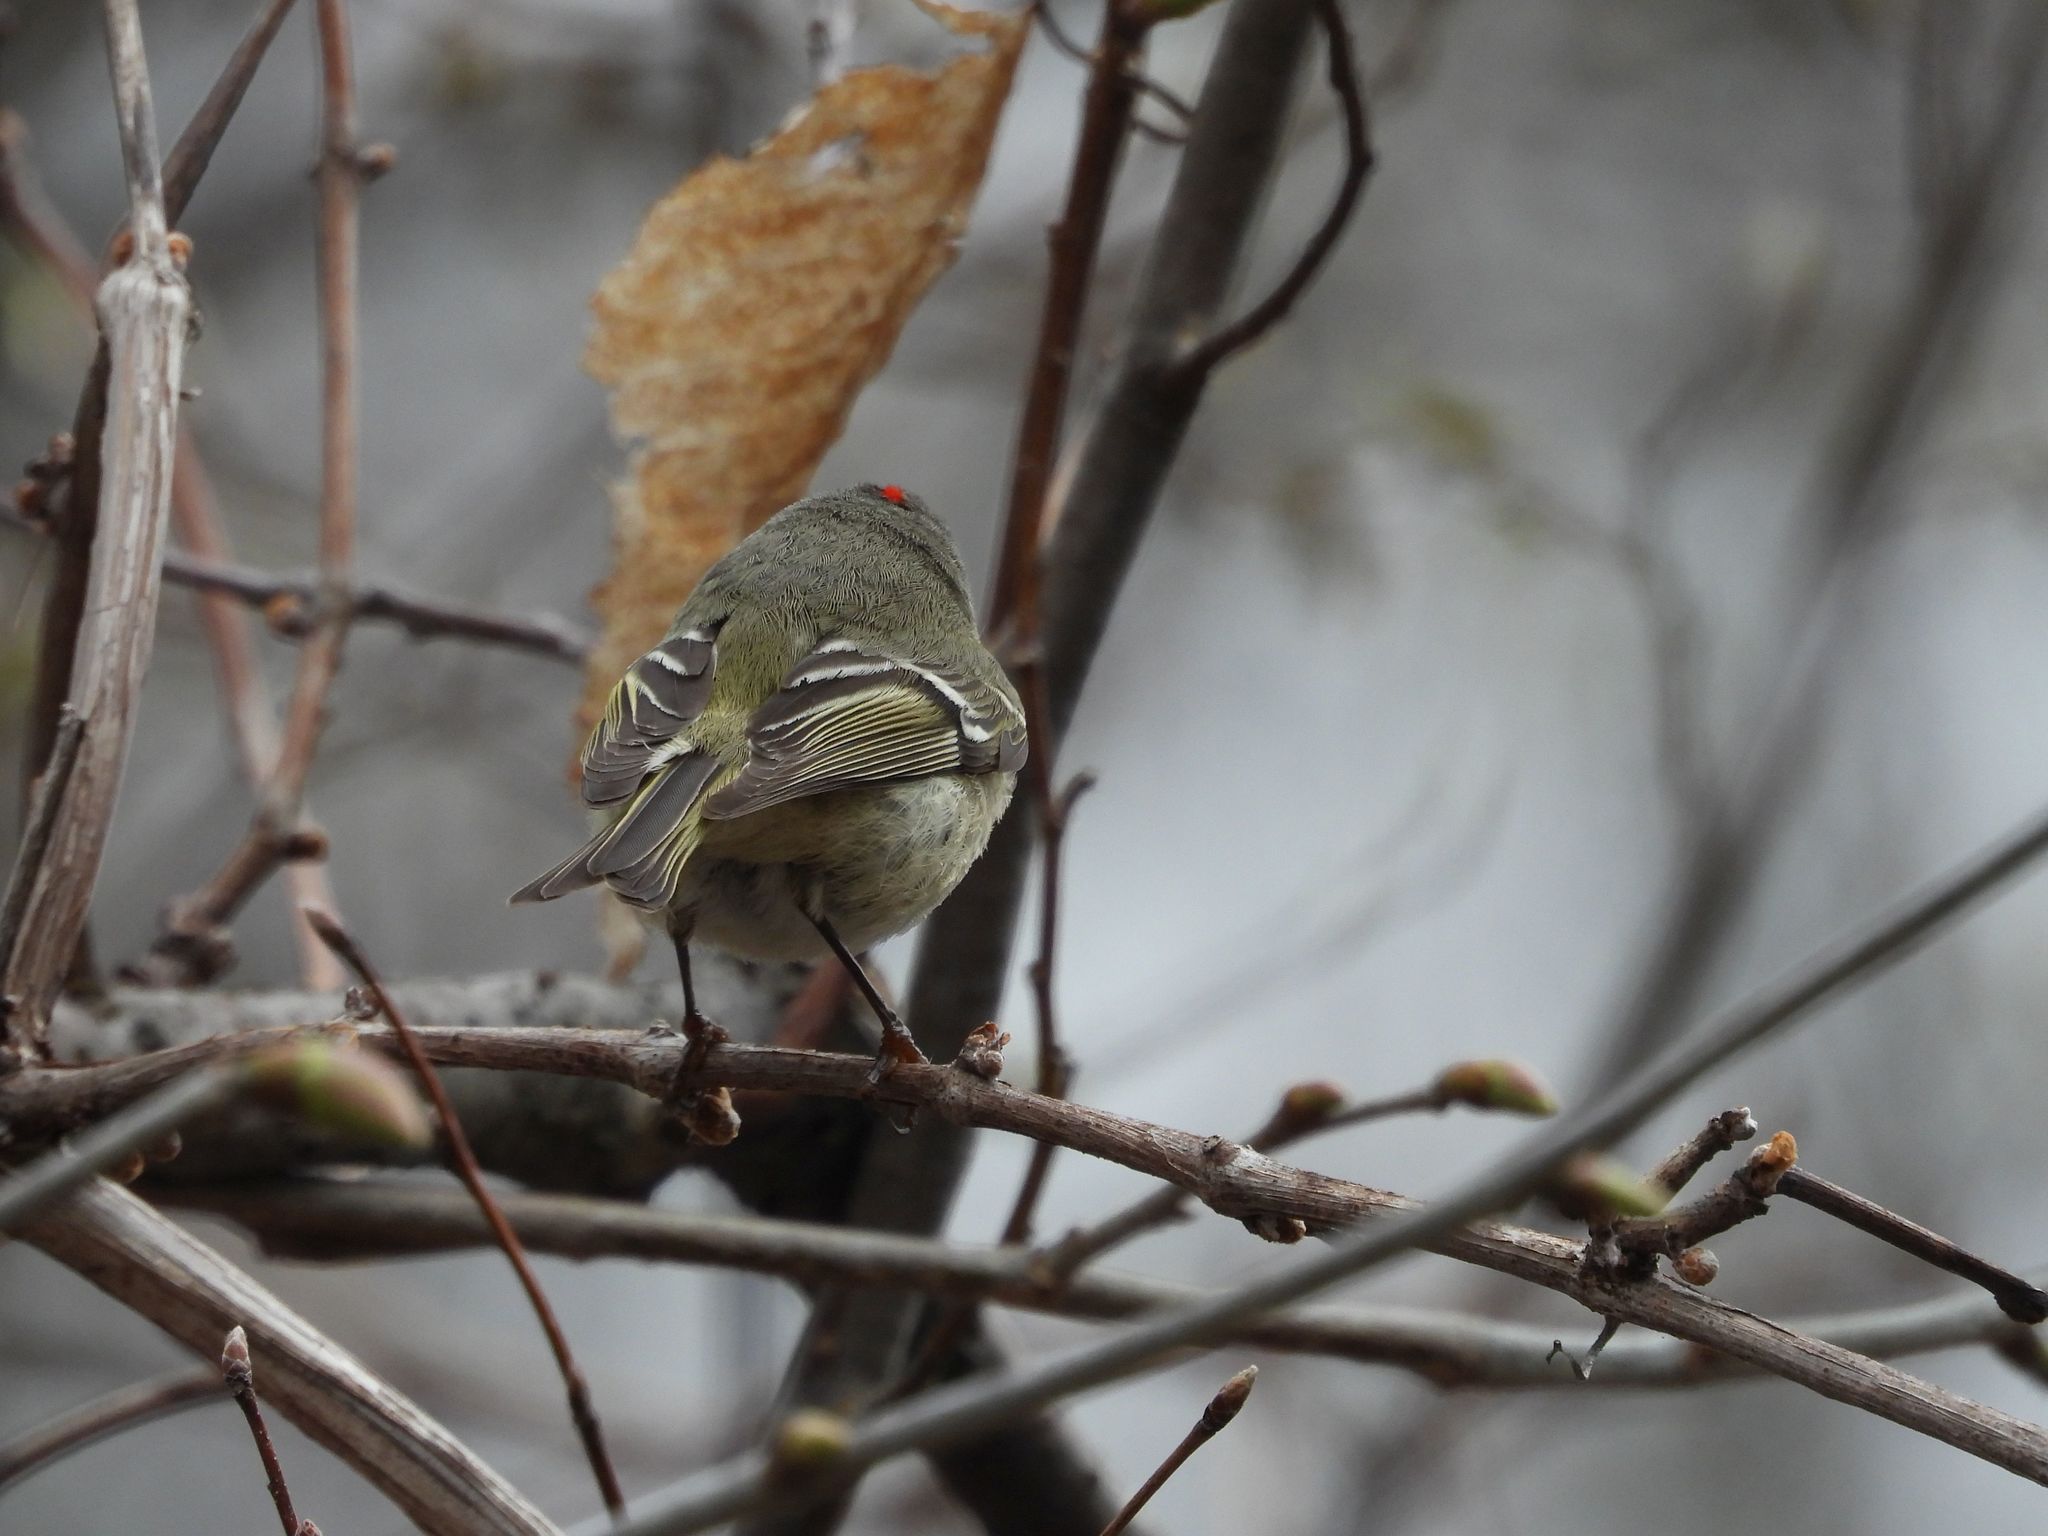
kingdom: Animalia
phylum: Chordata
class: Aves
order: Passeriformes
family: Regulidae
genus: Regulus
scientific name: Regulus calendula
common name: Ruby-crowned kinglet
